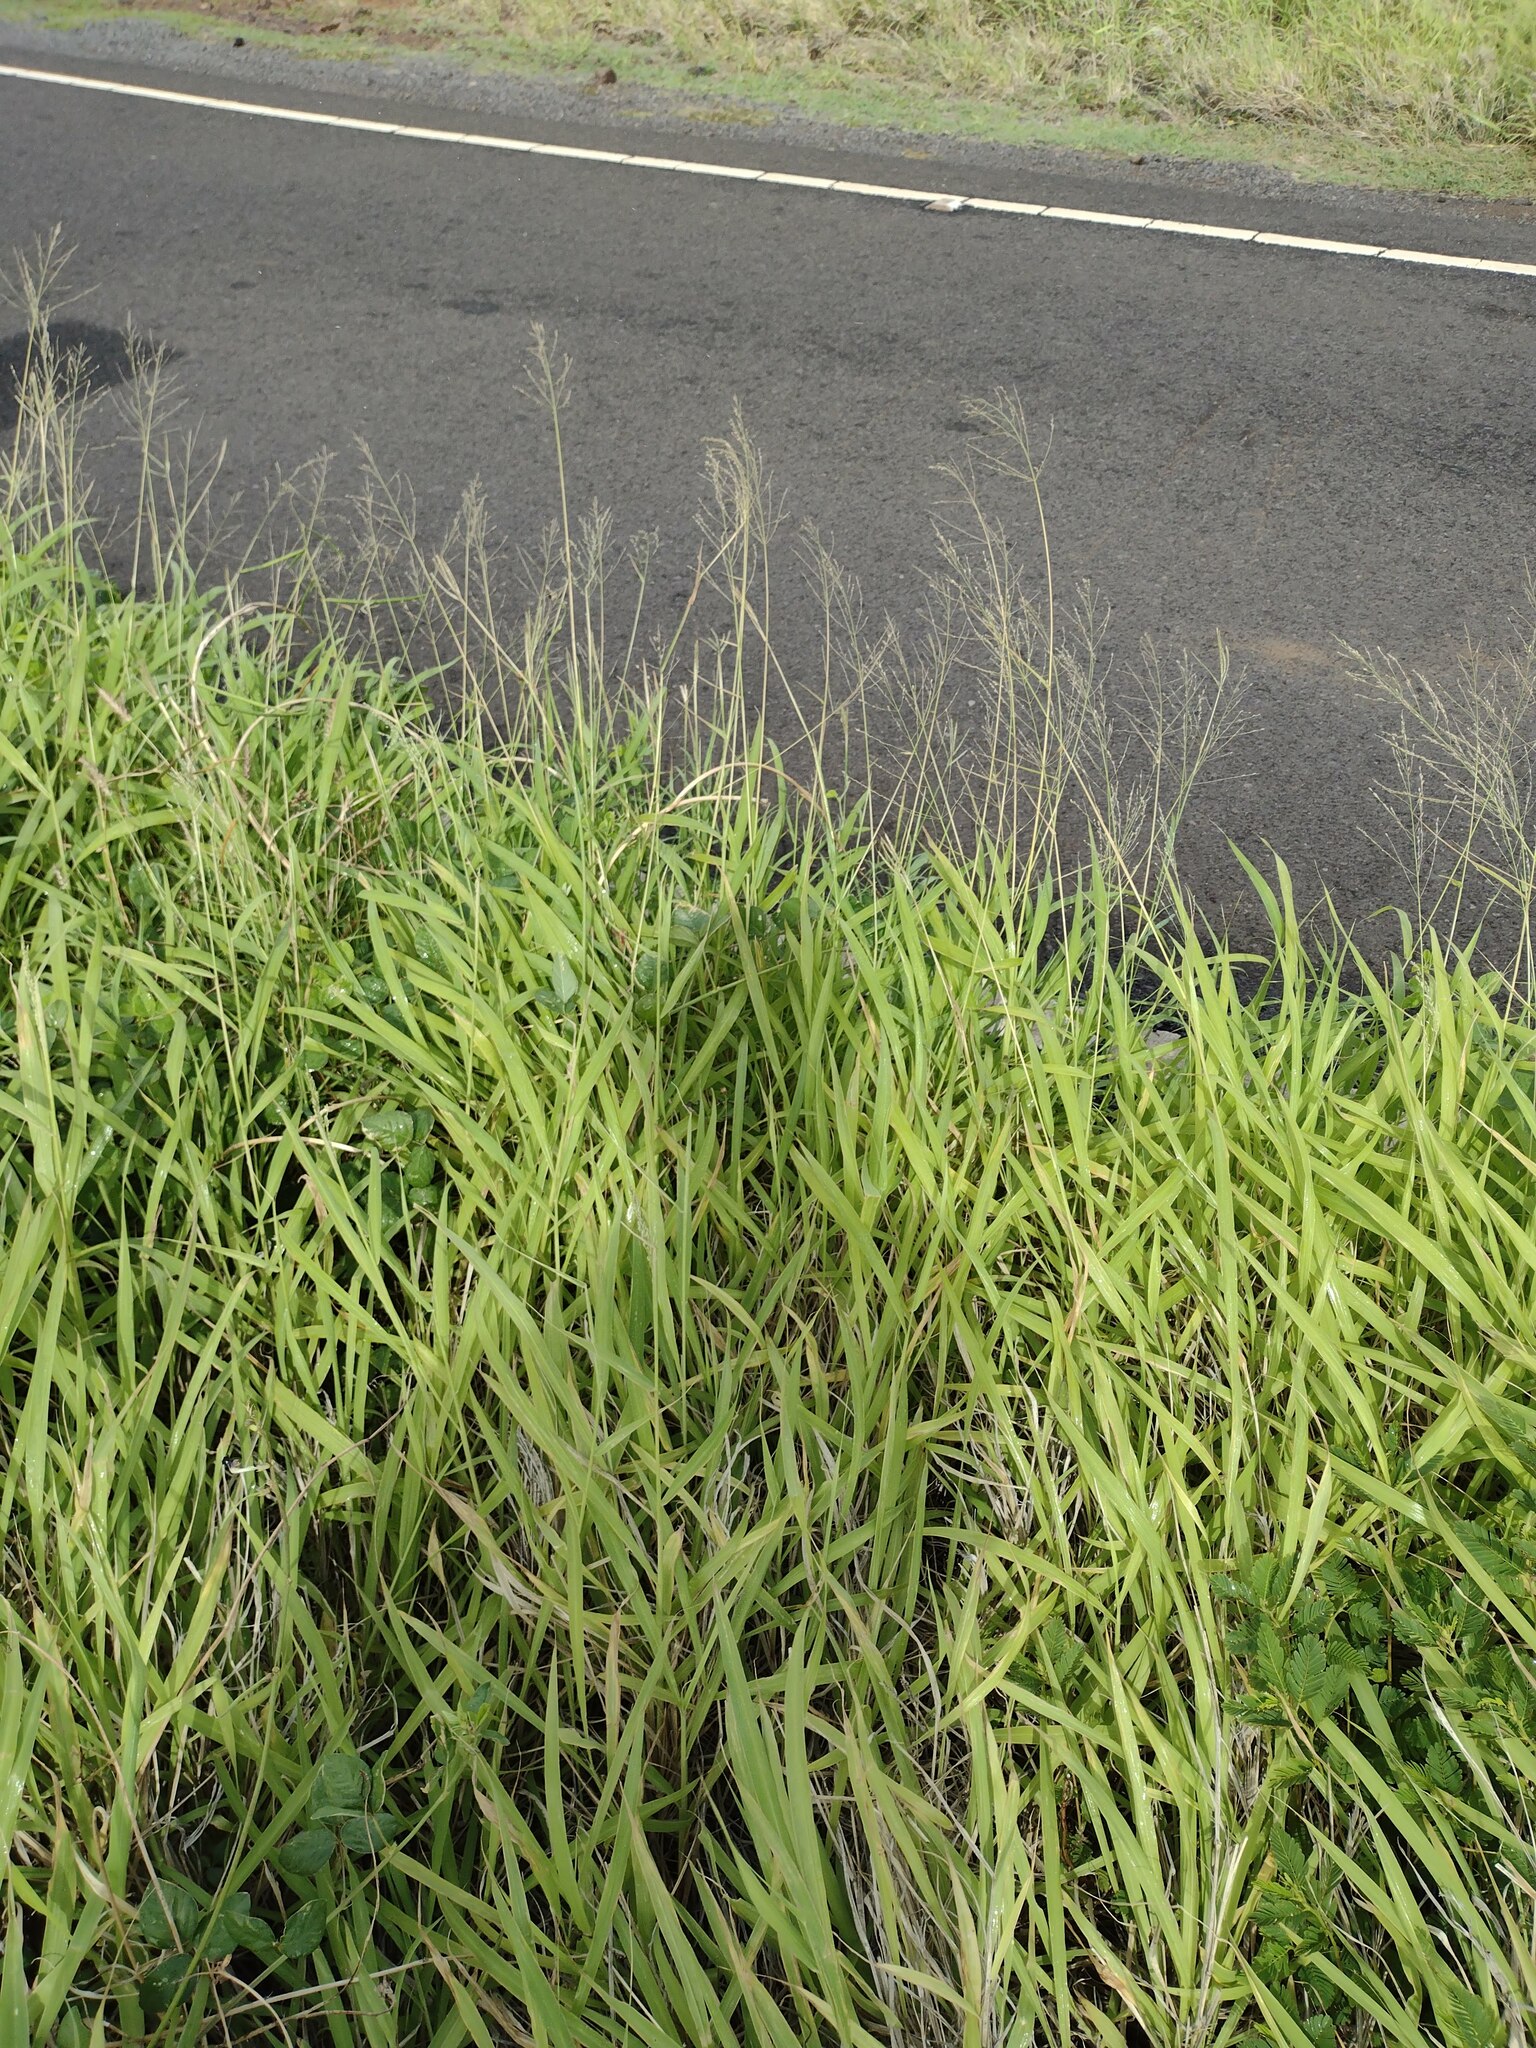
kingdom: Plantae
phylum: Tracheophyta
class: Liliopsida
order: Poales
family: Poaceae
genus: Megathyrsus
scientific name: Megathyrsus maximus
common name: Guineagrass
